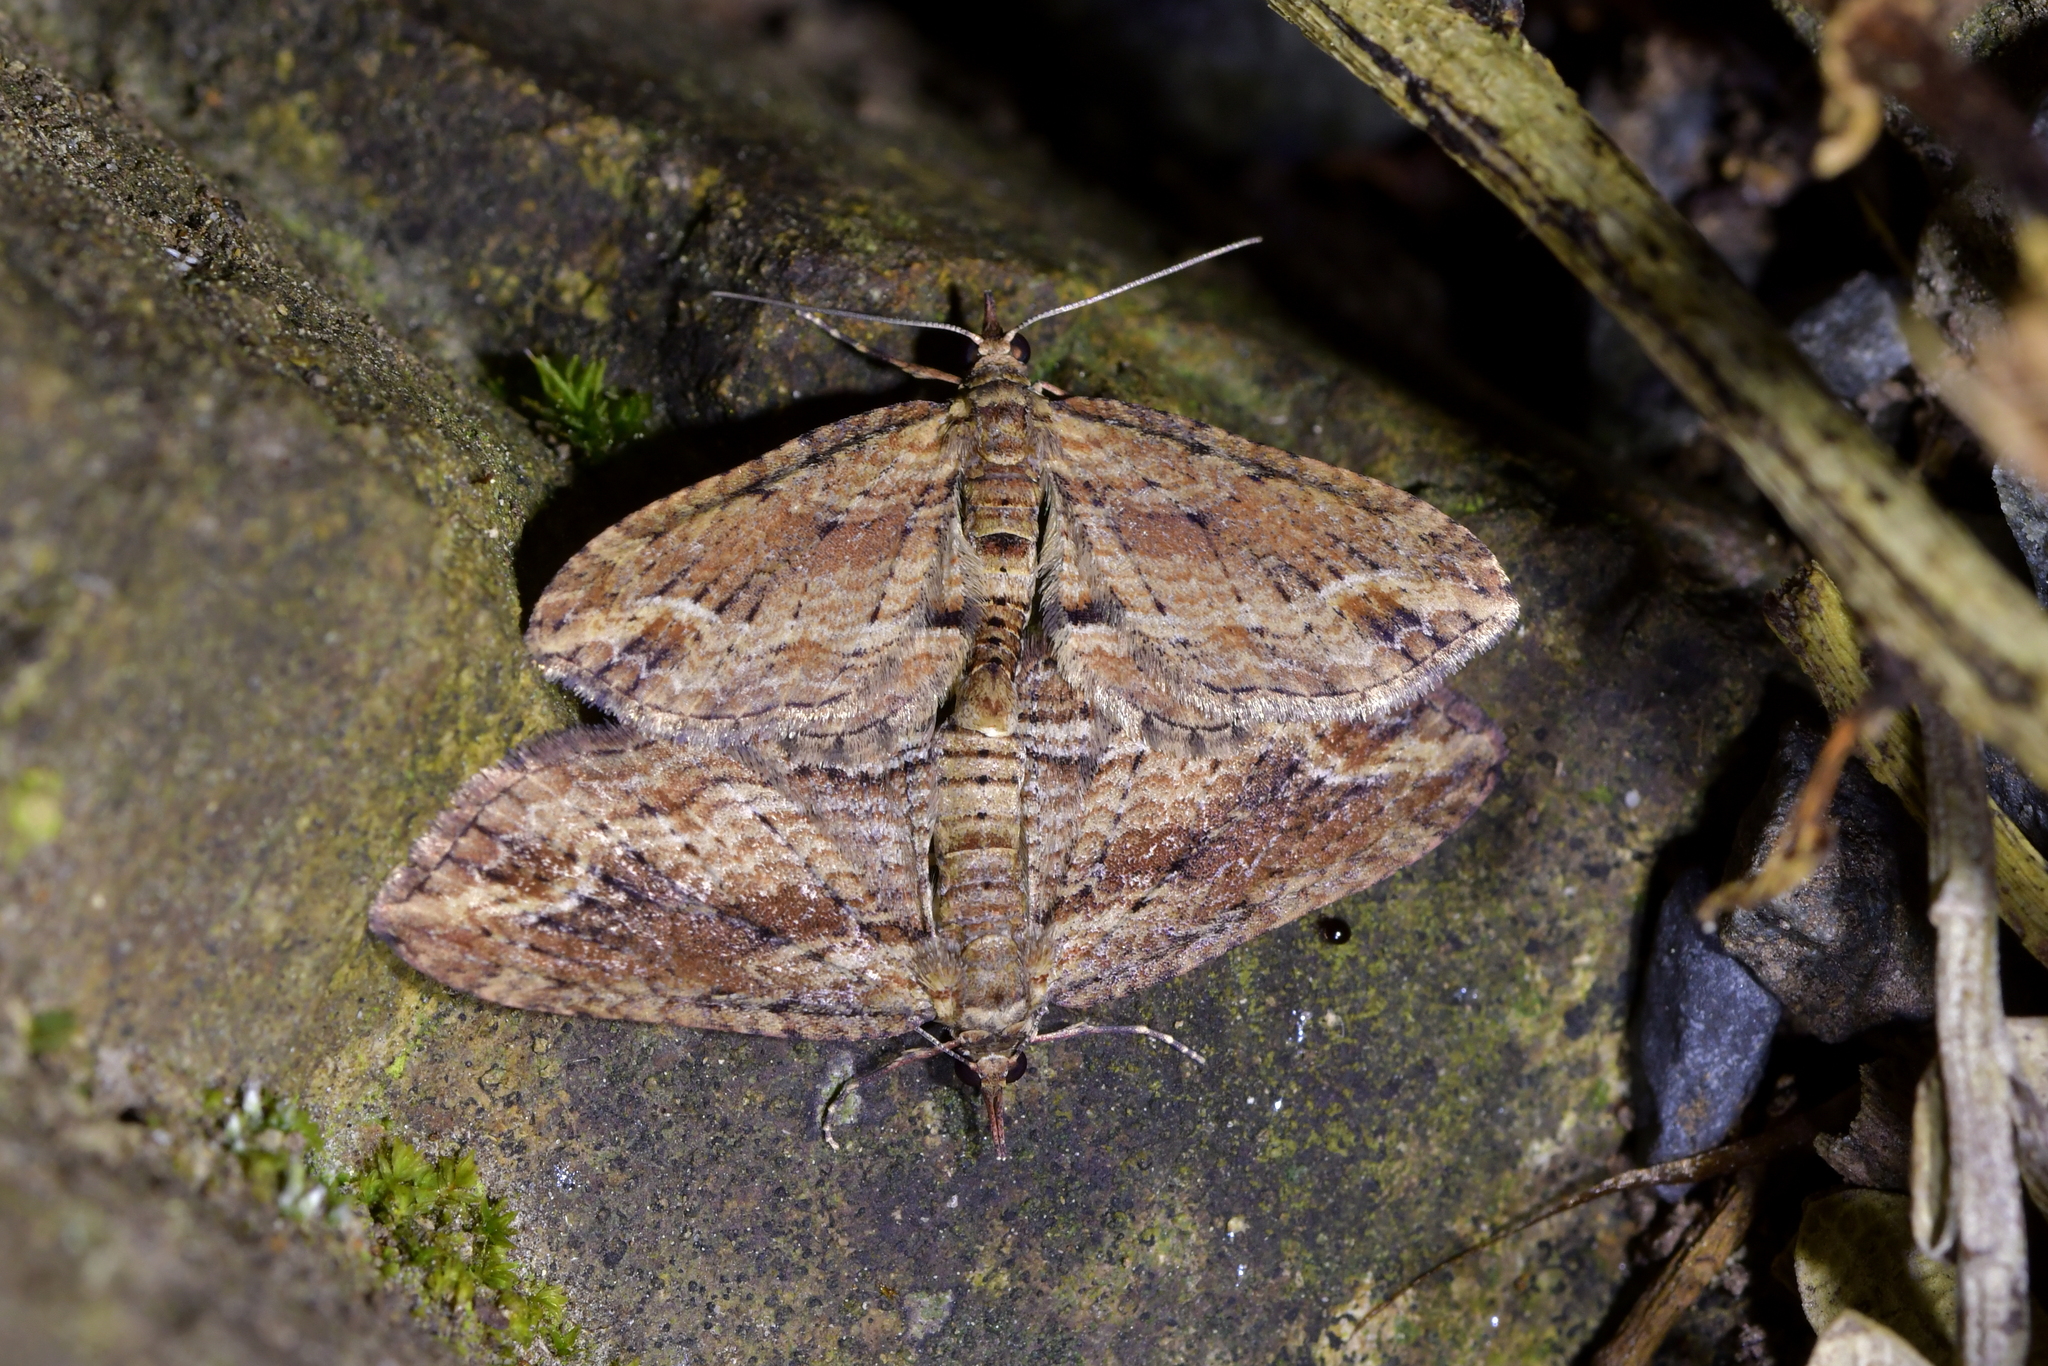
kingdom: Animalia
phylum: Arthropoda
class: Insecta
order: Lepidoptera
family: Geometridae
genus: Chloroclystis
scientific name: Chloroclystis filata
